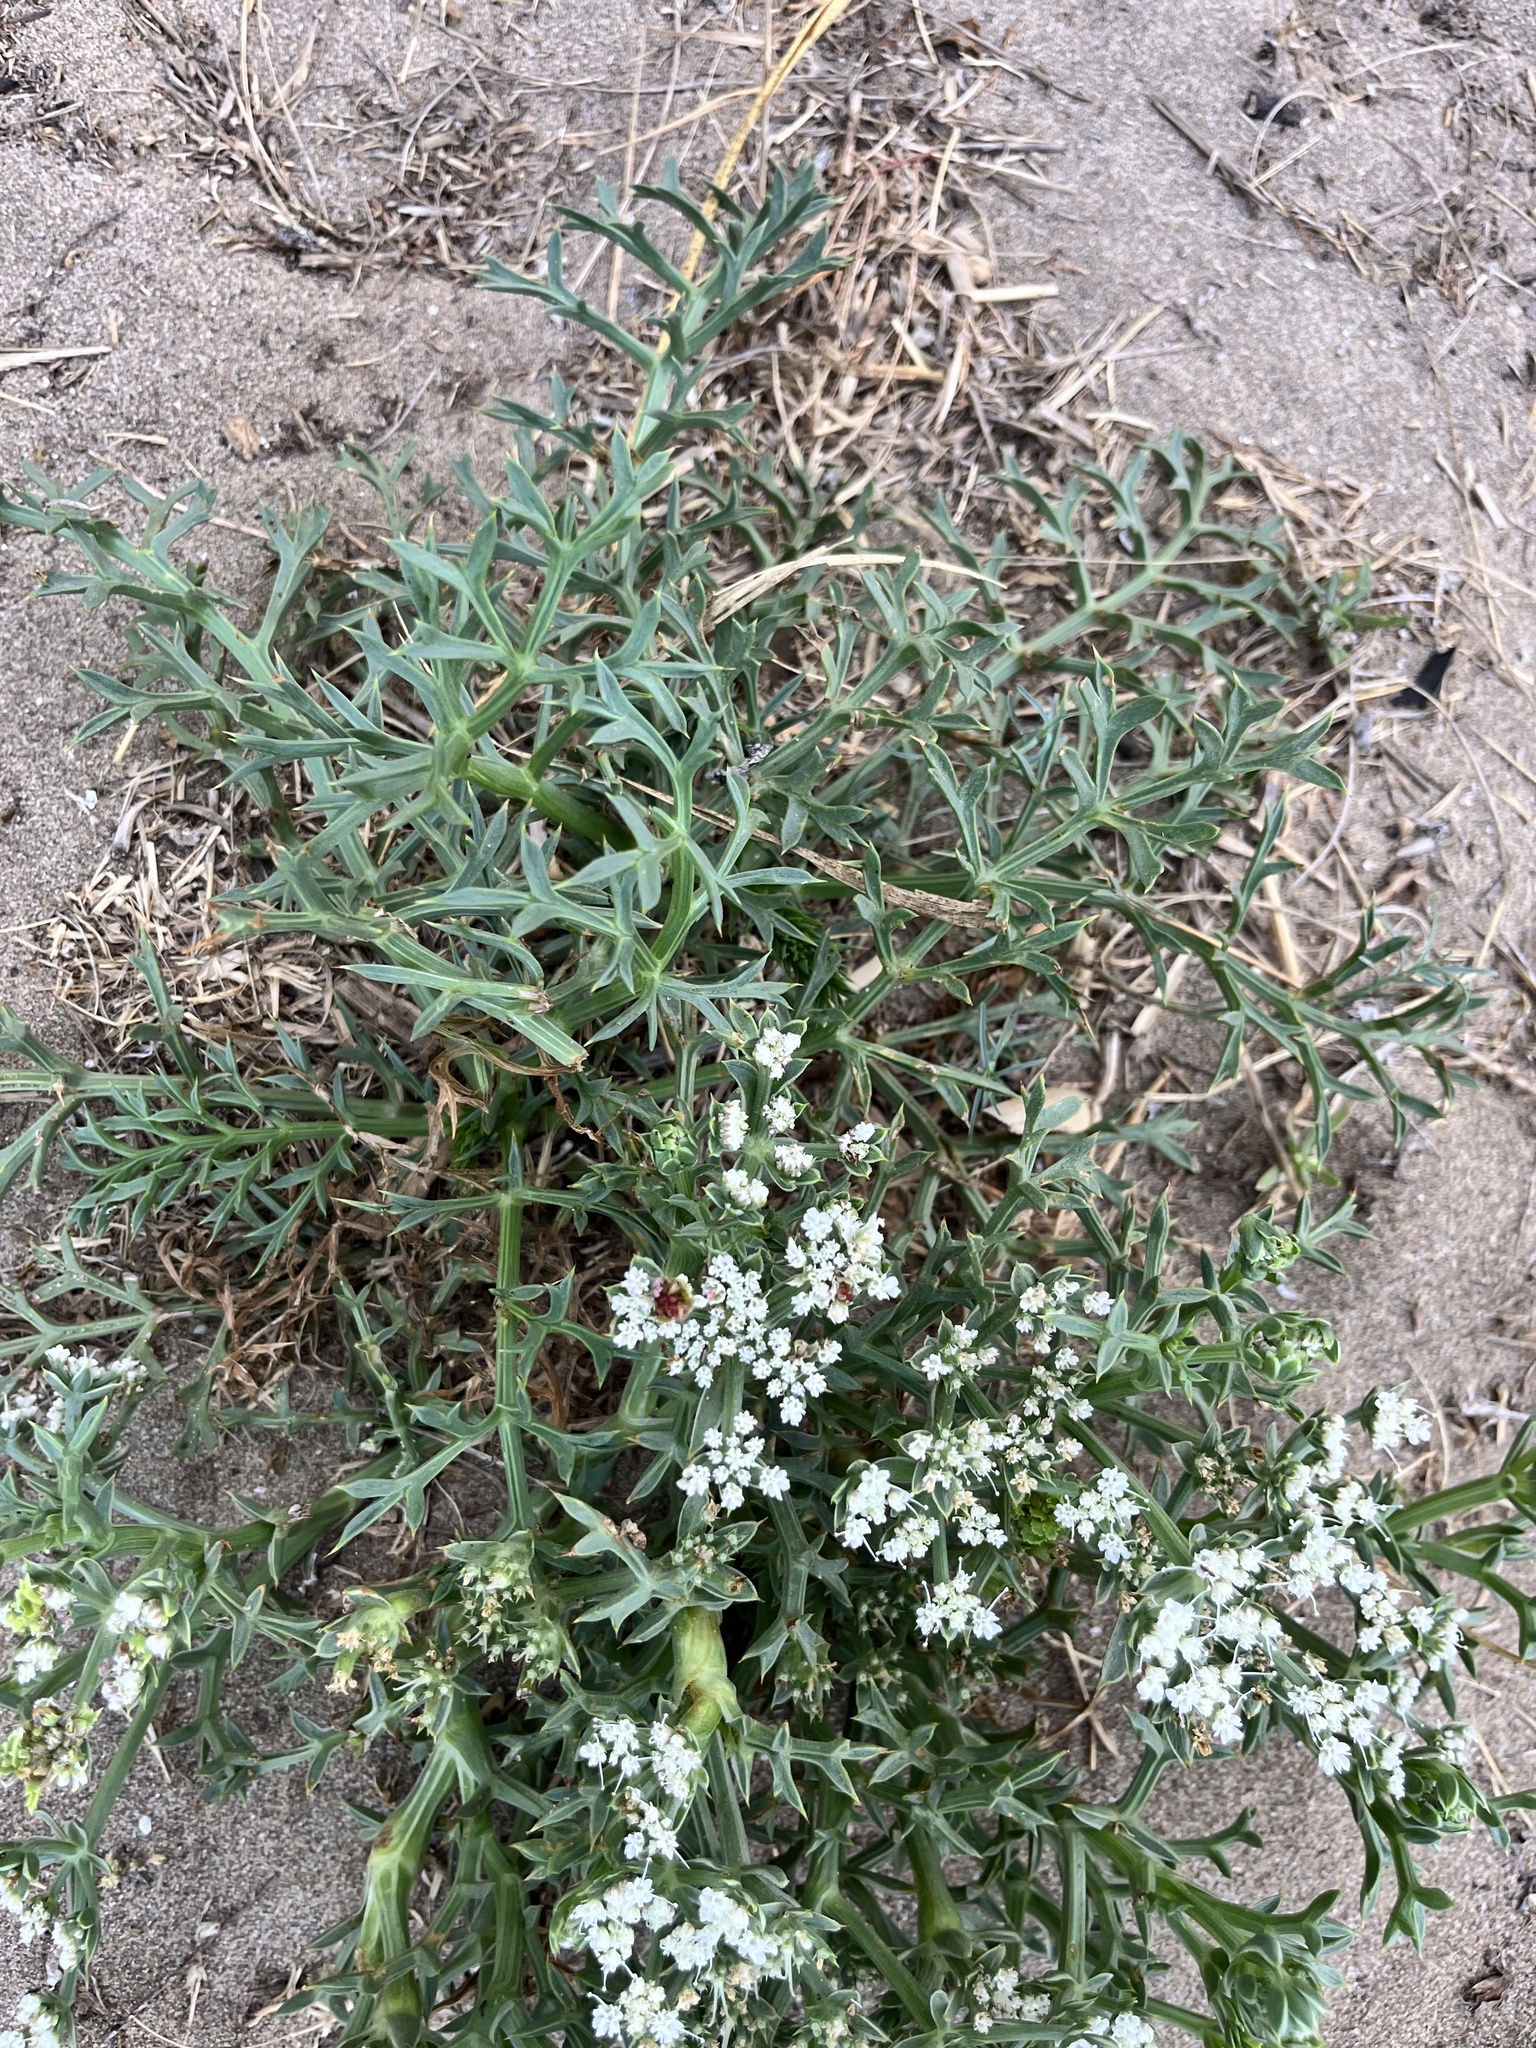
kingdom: Plantae
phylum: Tracheophyta
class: Magnoliopsida
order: Apiales
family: Apiaceae
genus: Echinophora
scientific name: Echinophora spinosa
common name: Prickly samphire
